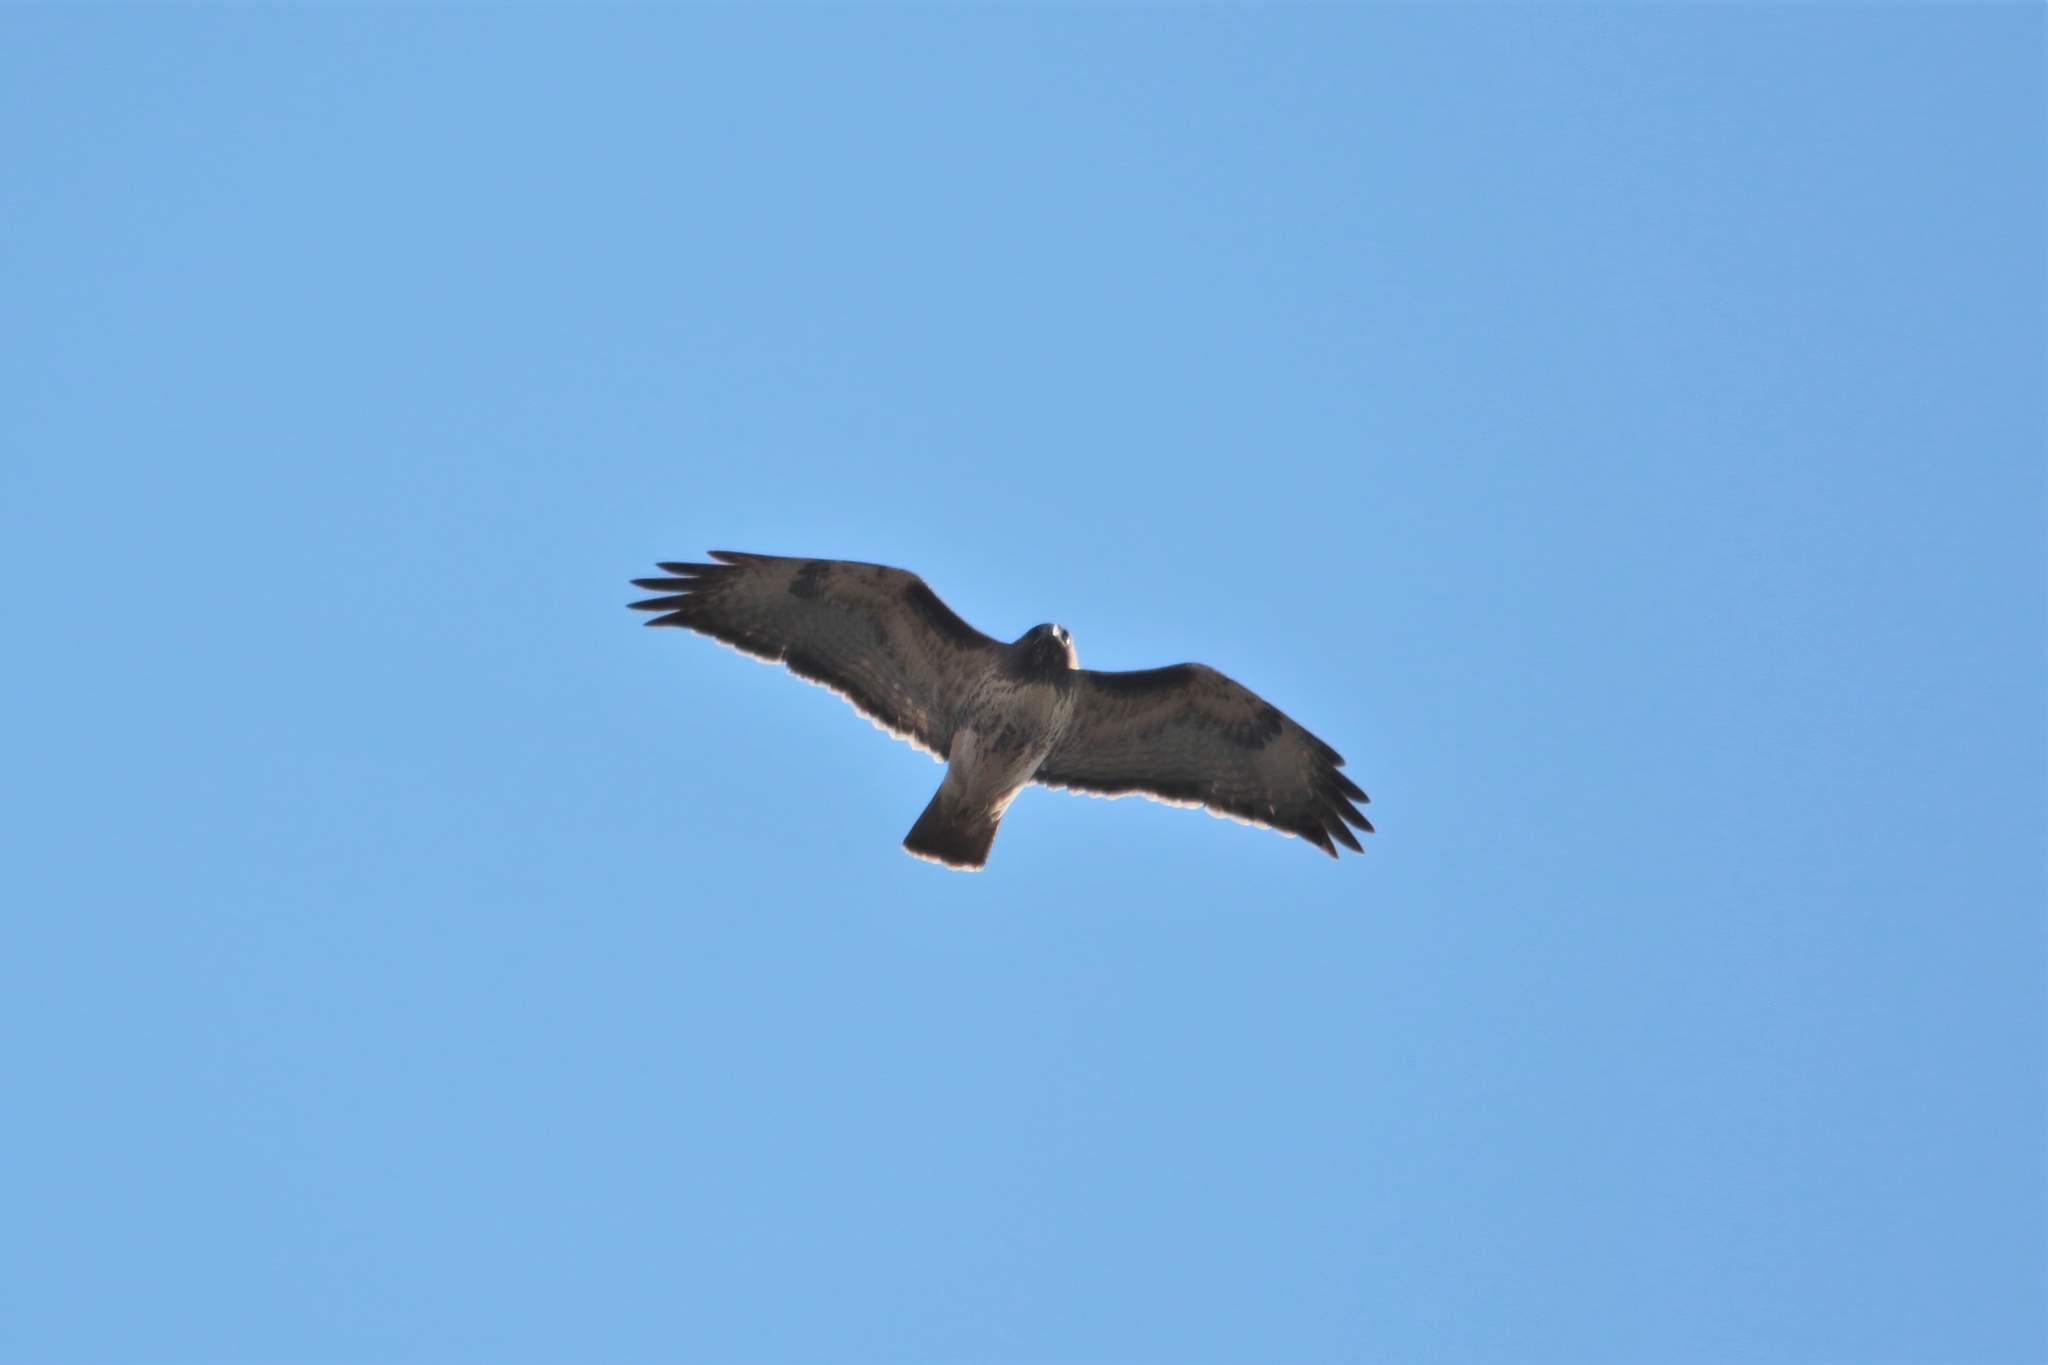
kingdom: Animalia
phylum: Chordata
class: Aves
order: Accipitriformes
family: Accipitridae
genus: Buteo
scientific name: Buteo jamaicensis
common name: Red-tailed hawk
